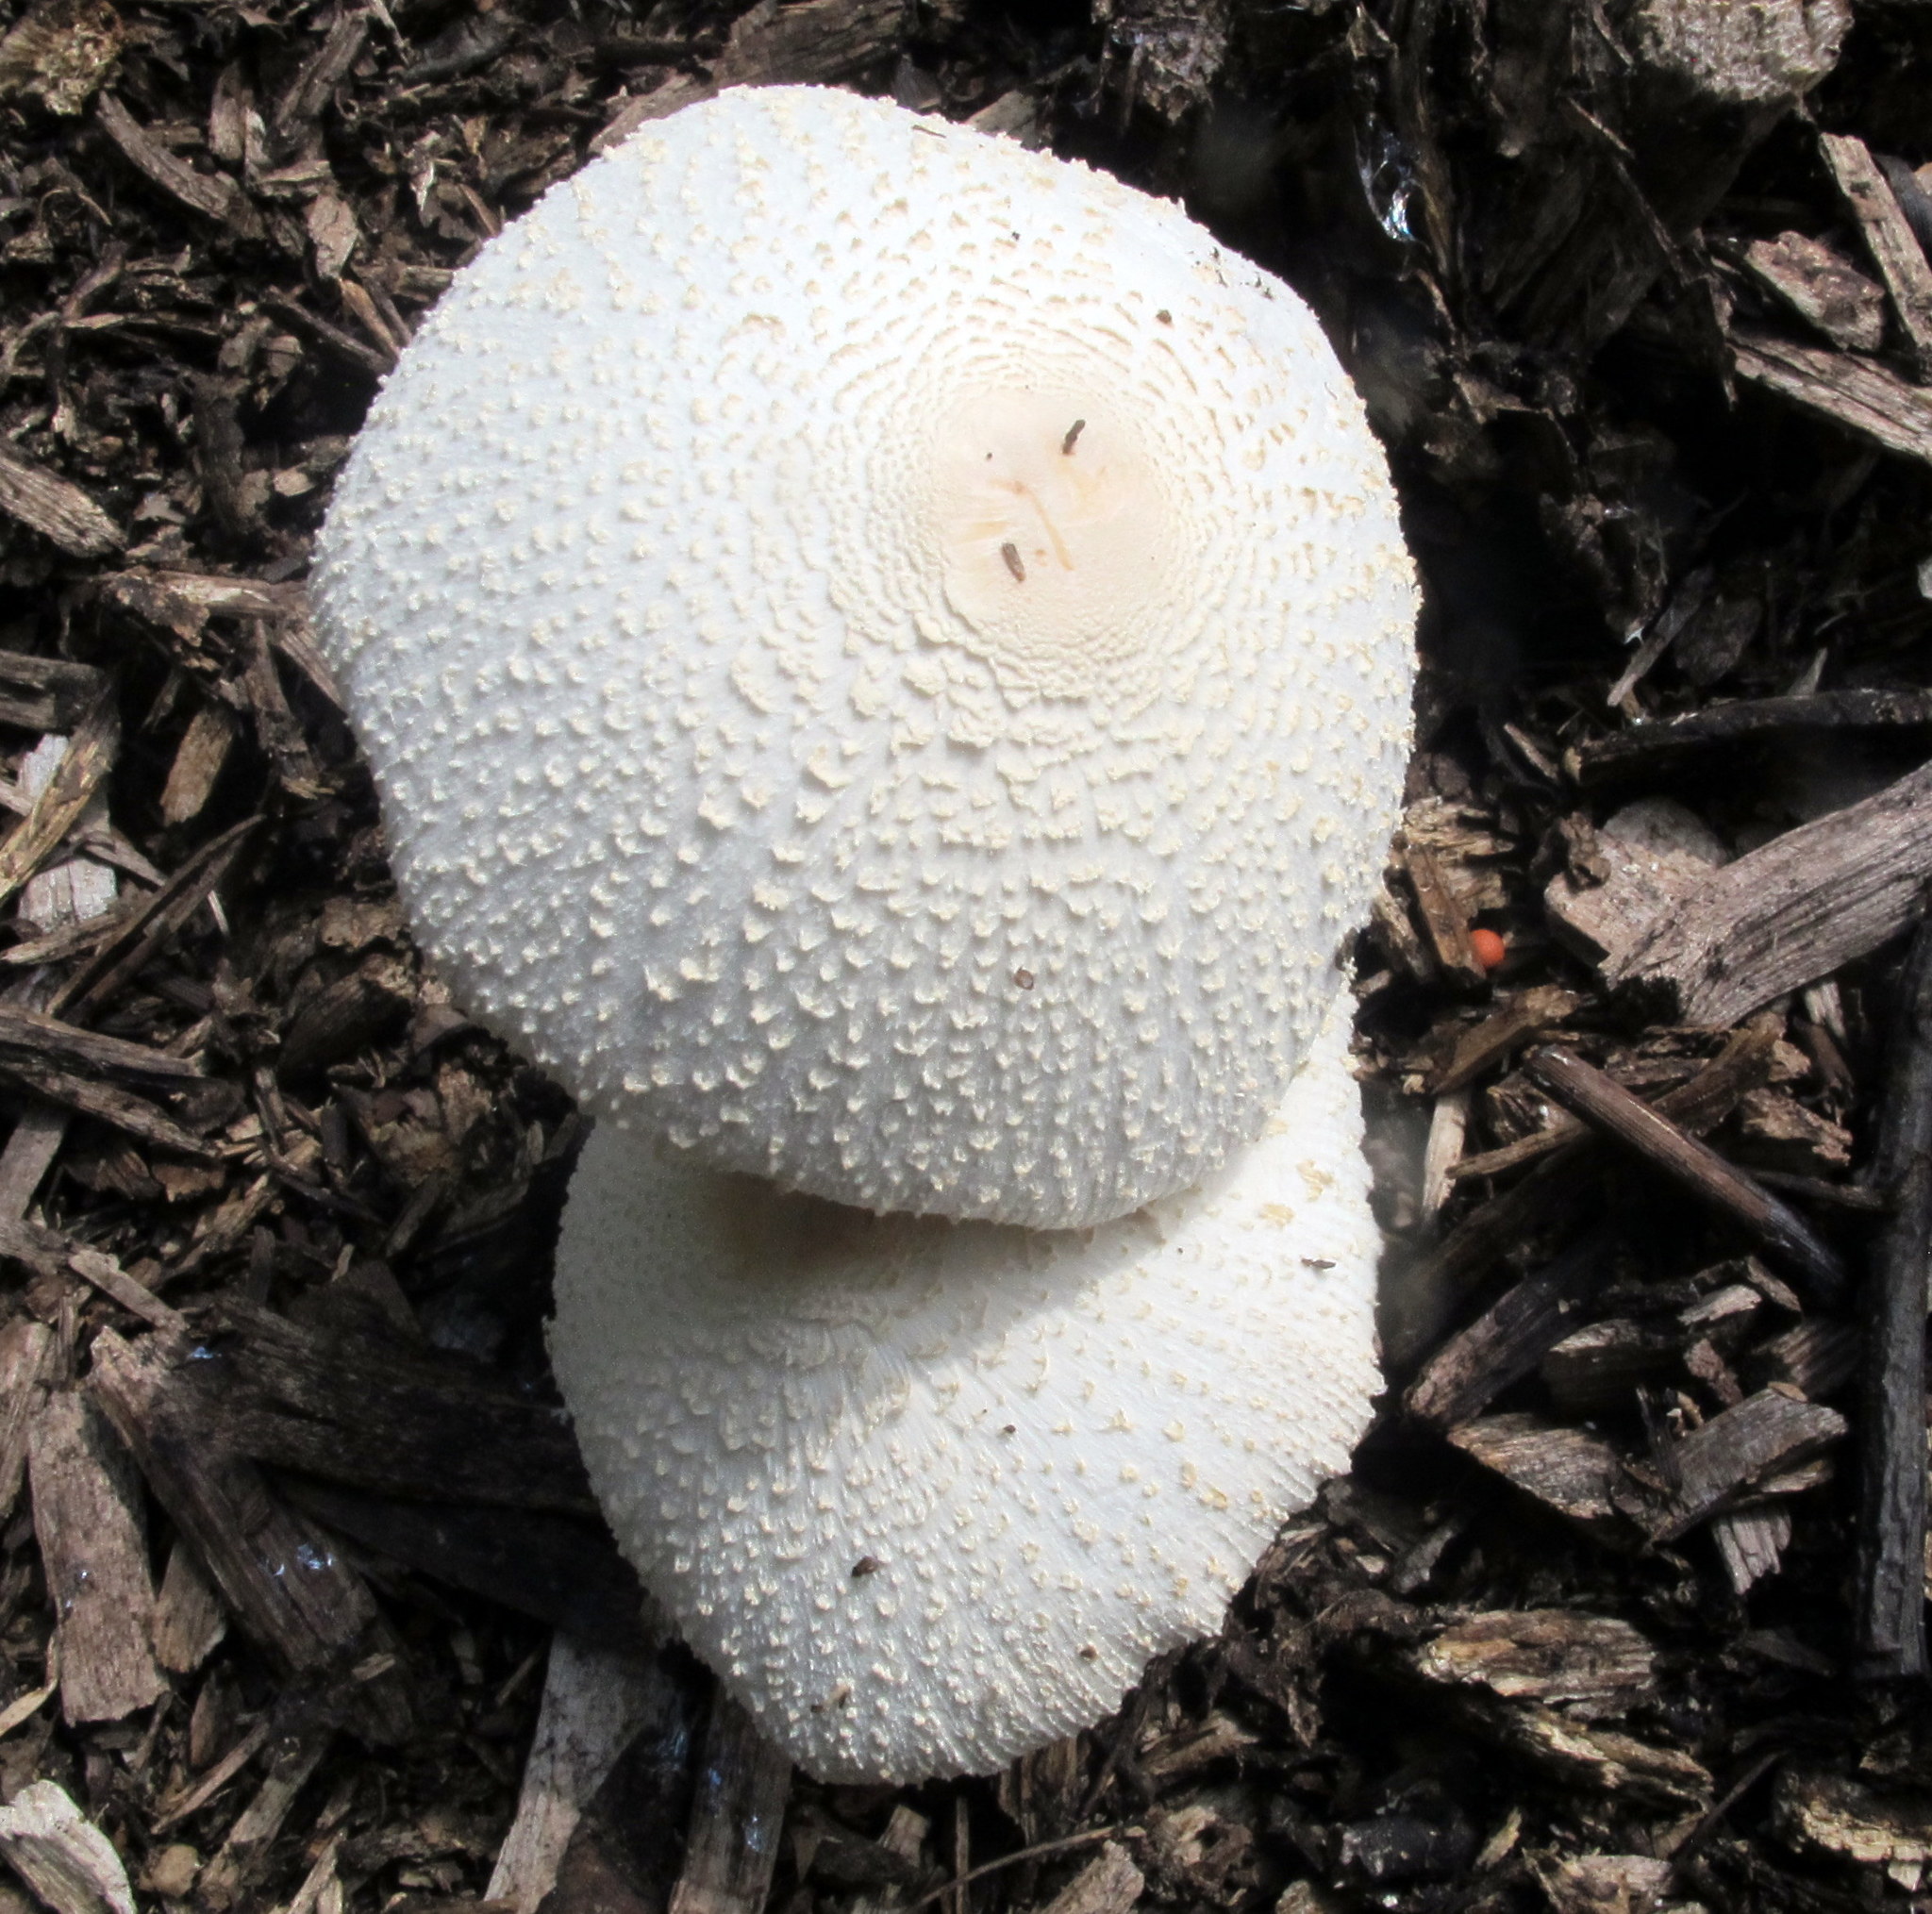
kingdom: Fungi
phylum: Basidiomycota
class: Agaricomycetes
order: Agaricales
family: Agaricaceae
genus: Leucocoprinus
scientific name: Leucocoprinus cepistipes
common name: Onion-stalk parasol
